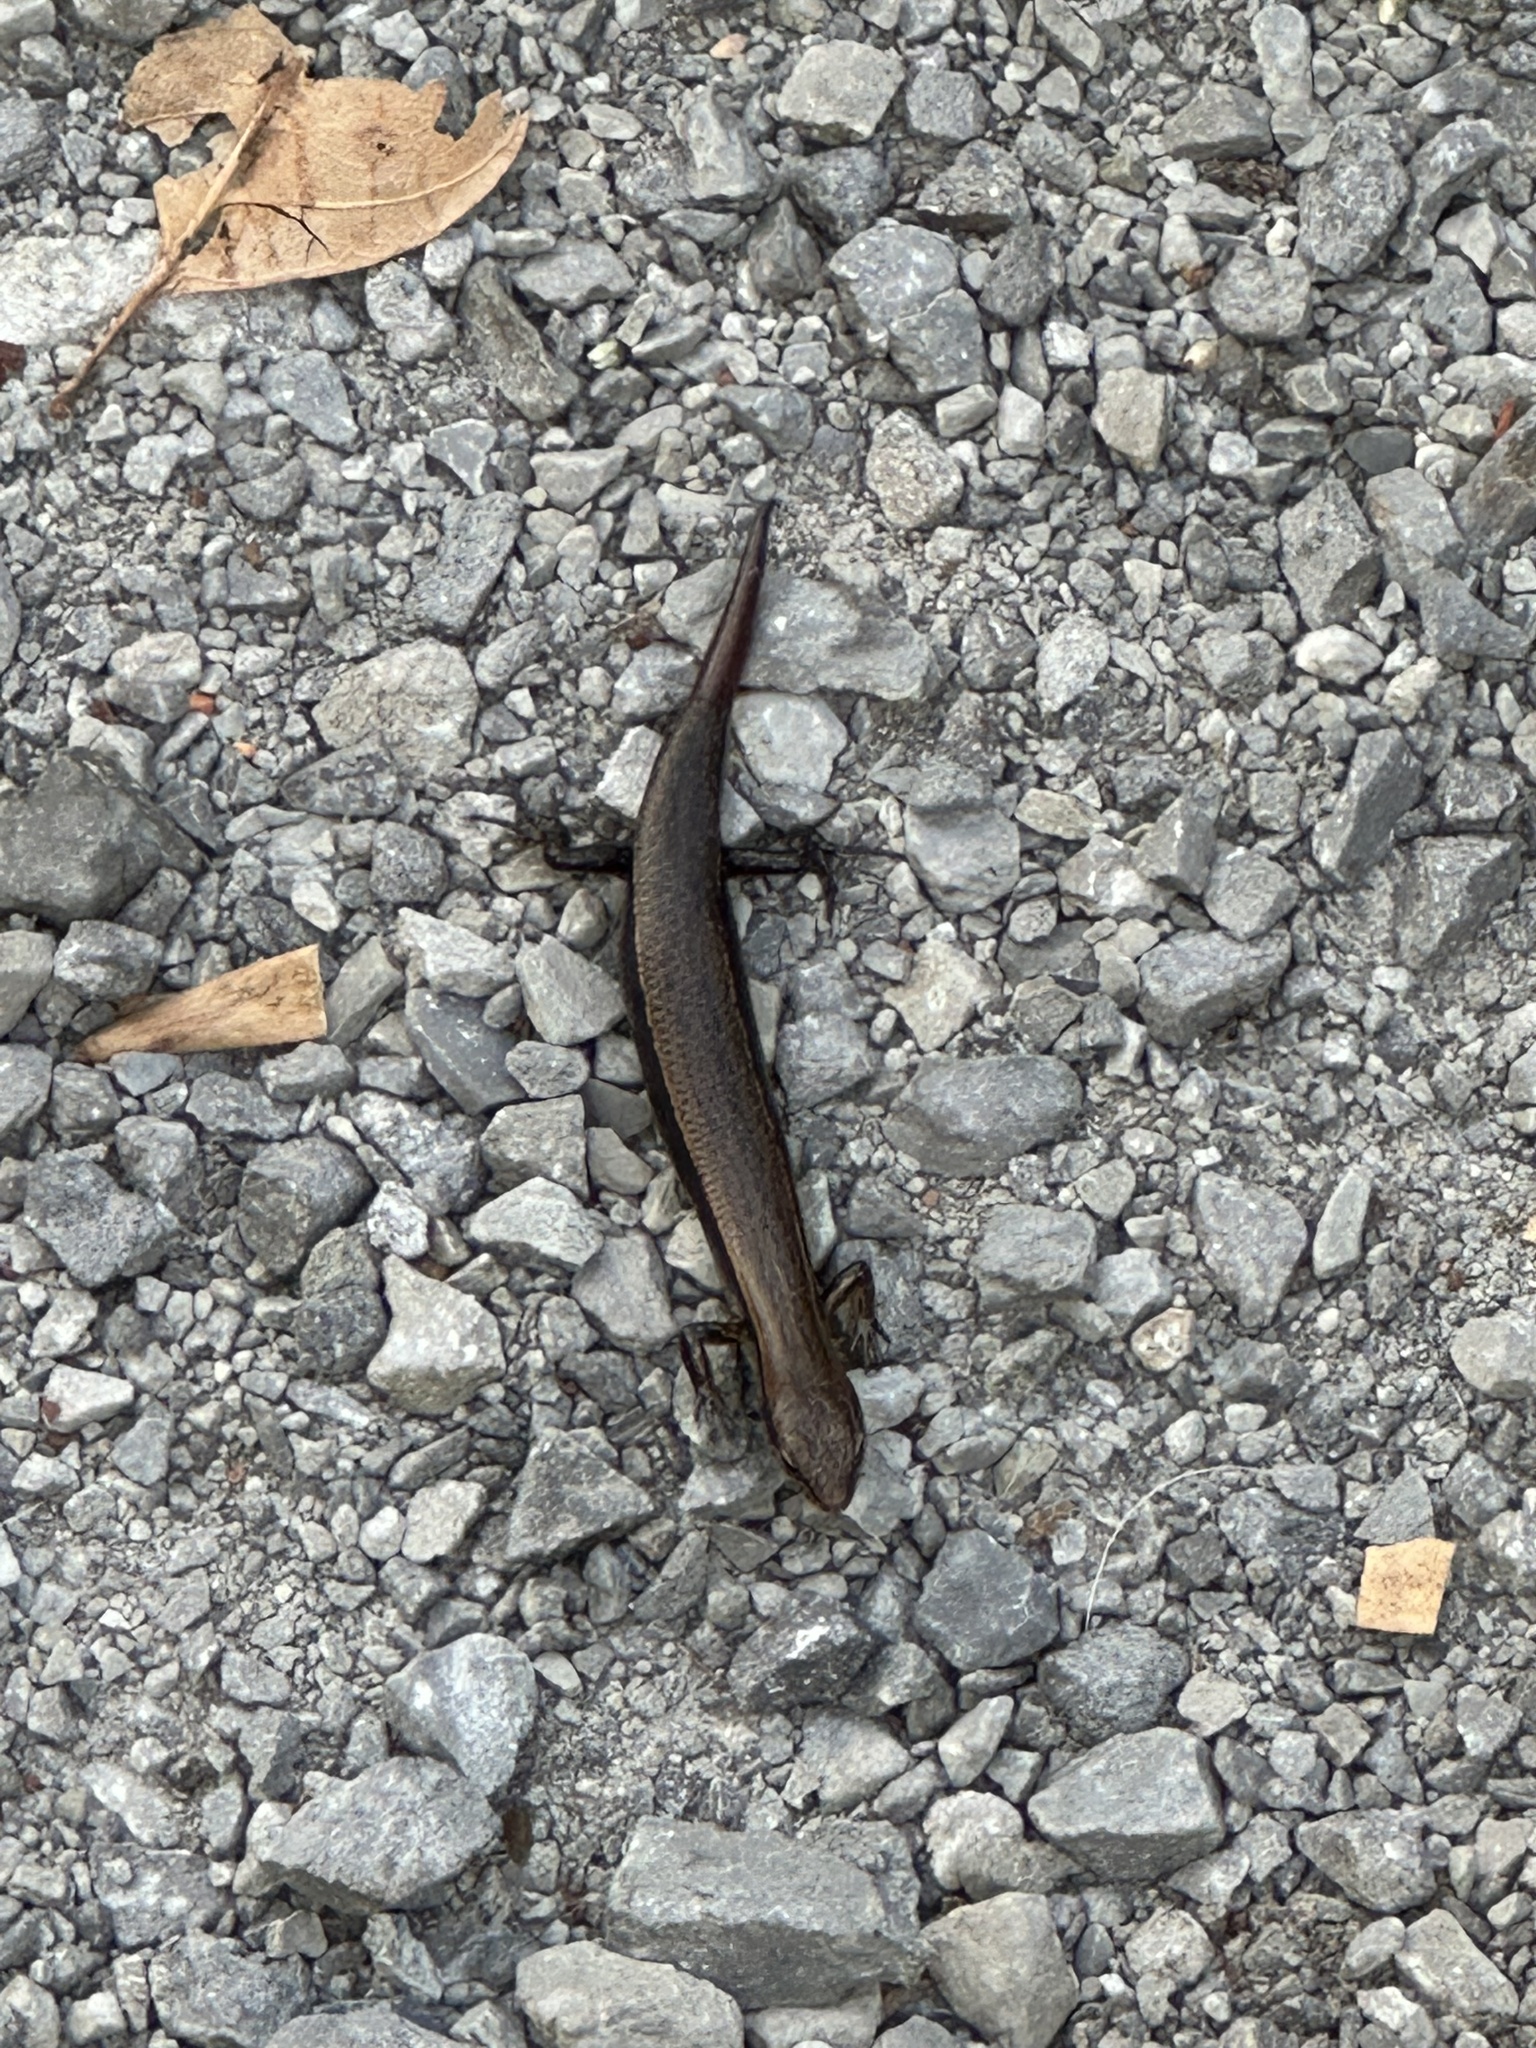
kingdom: Animalia
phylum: Chordata
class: Squamata
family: Scincidae
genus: Scincella
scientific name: Scincella lateralis
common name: Ground skink
